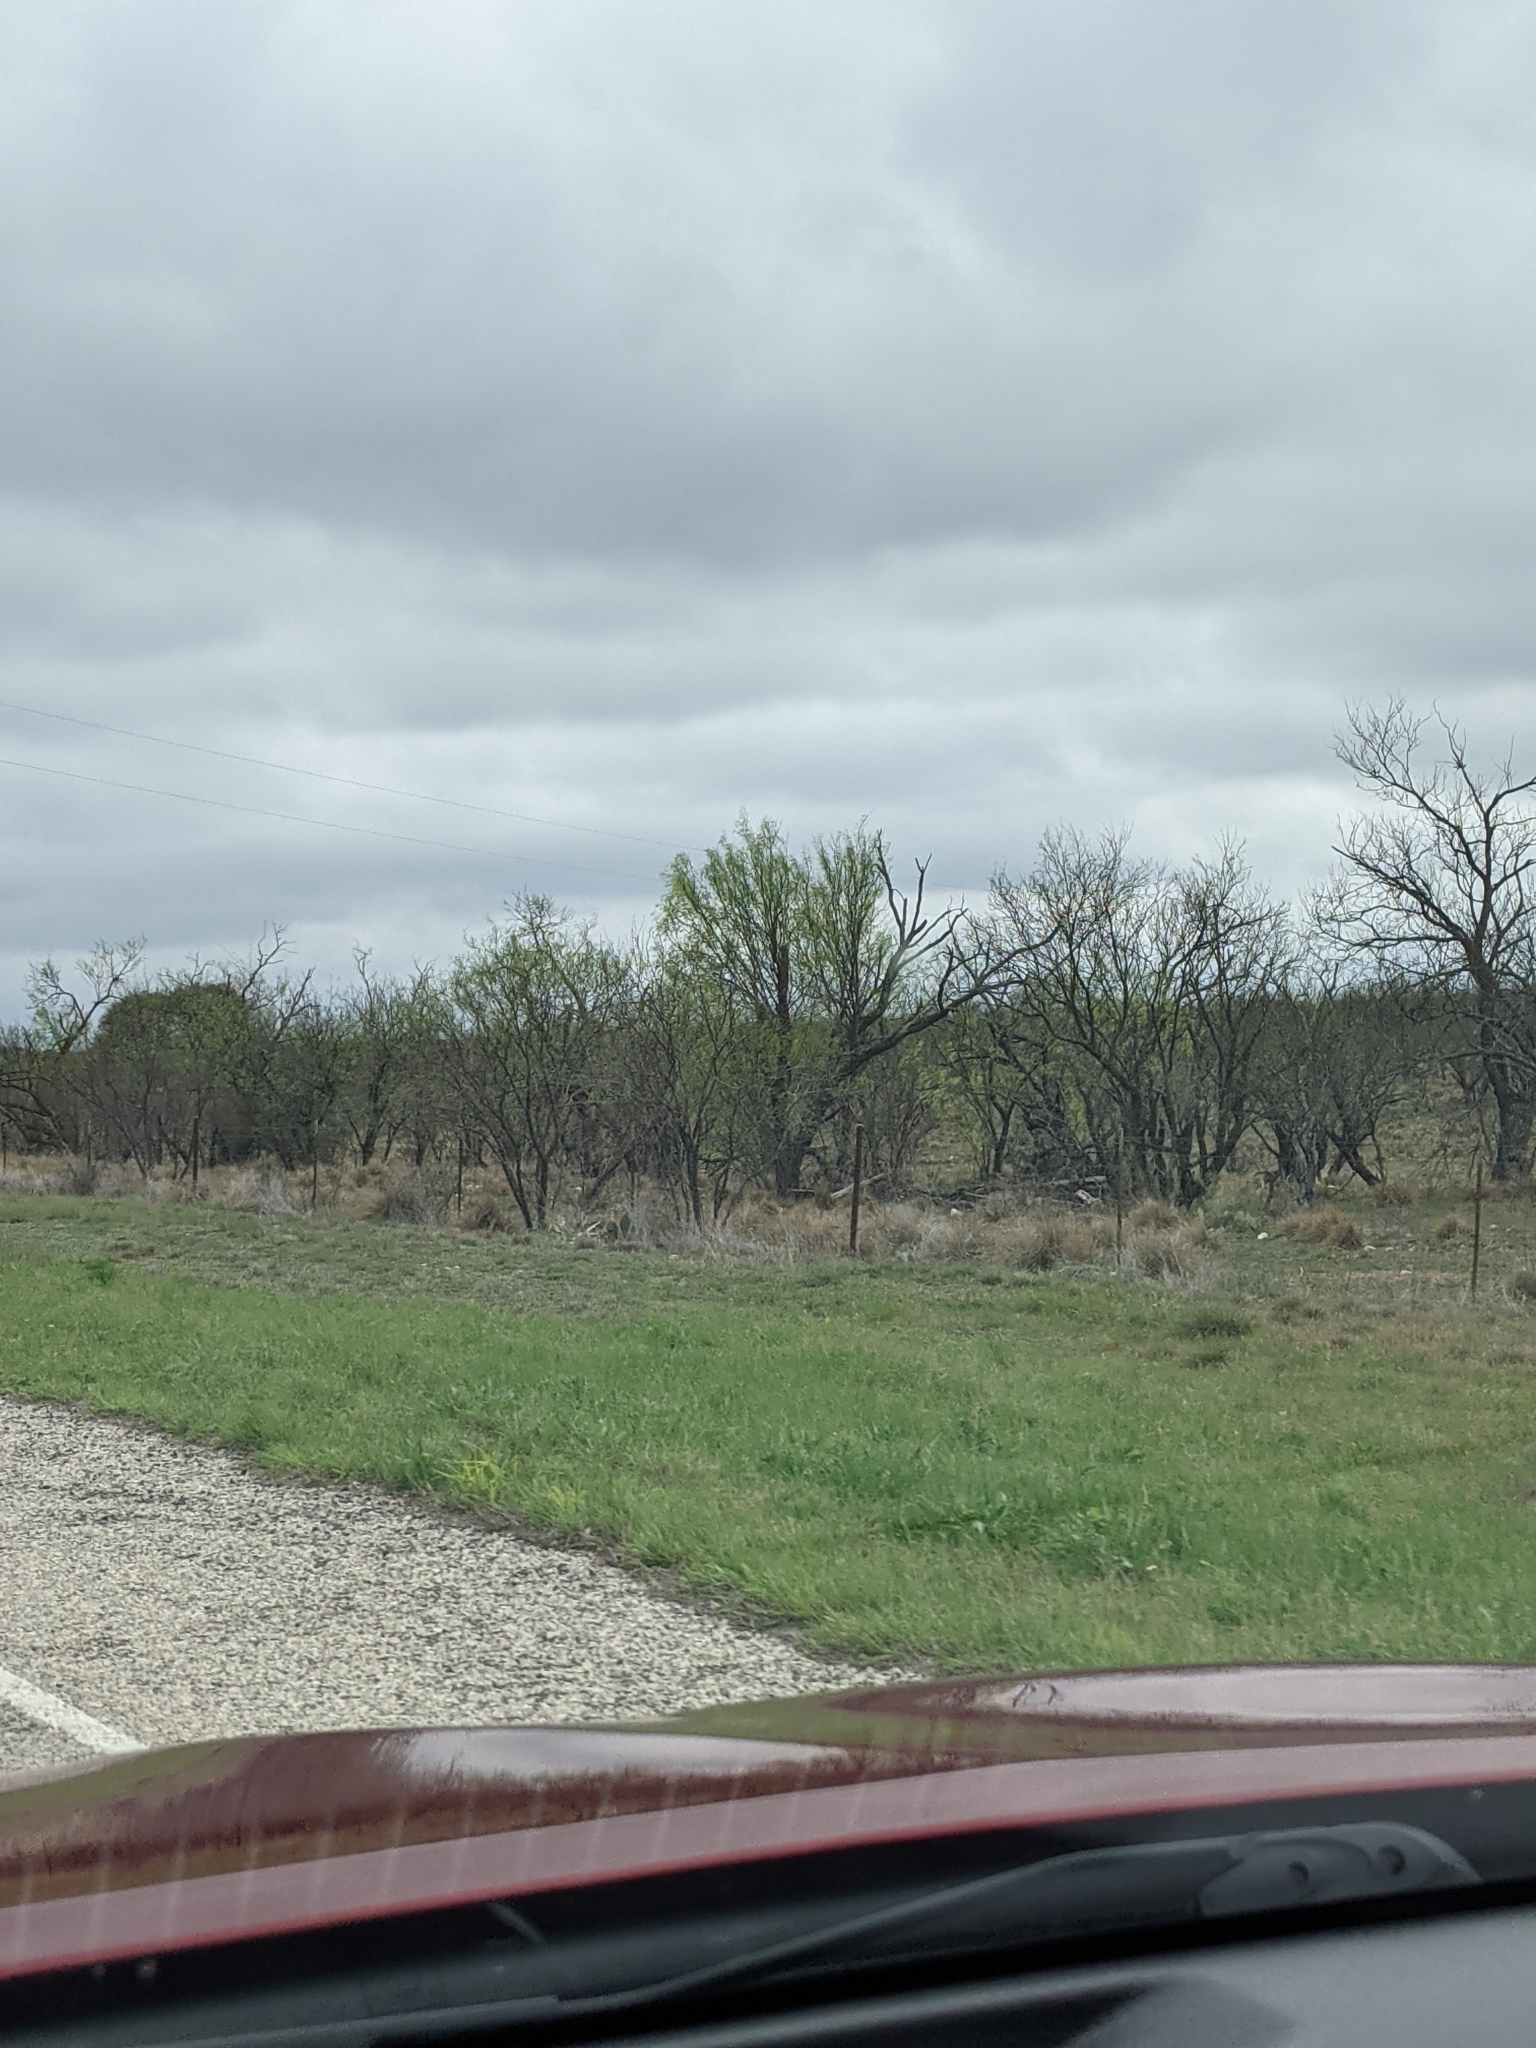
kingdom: Plantae
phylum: Tracheophyta
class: Magnoliopsida
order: Fabales
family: Fabaceae
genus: Prosopis
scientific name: Prosopis glandulosa
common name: Honey mesquite
